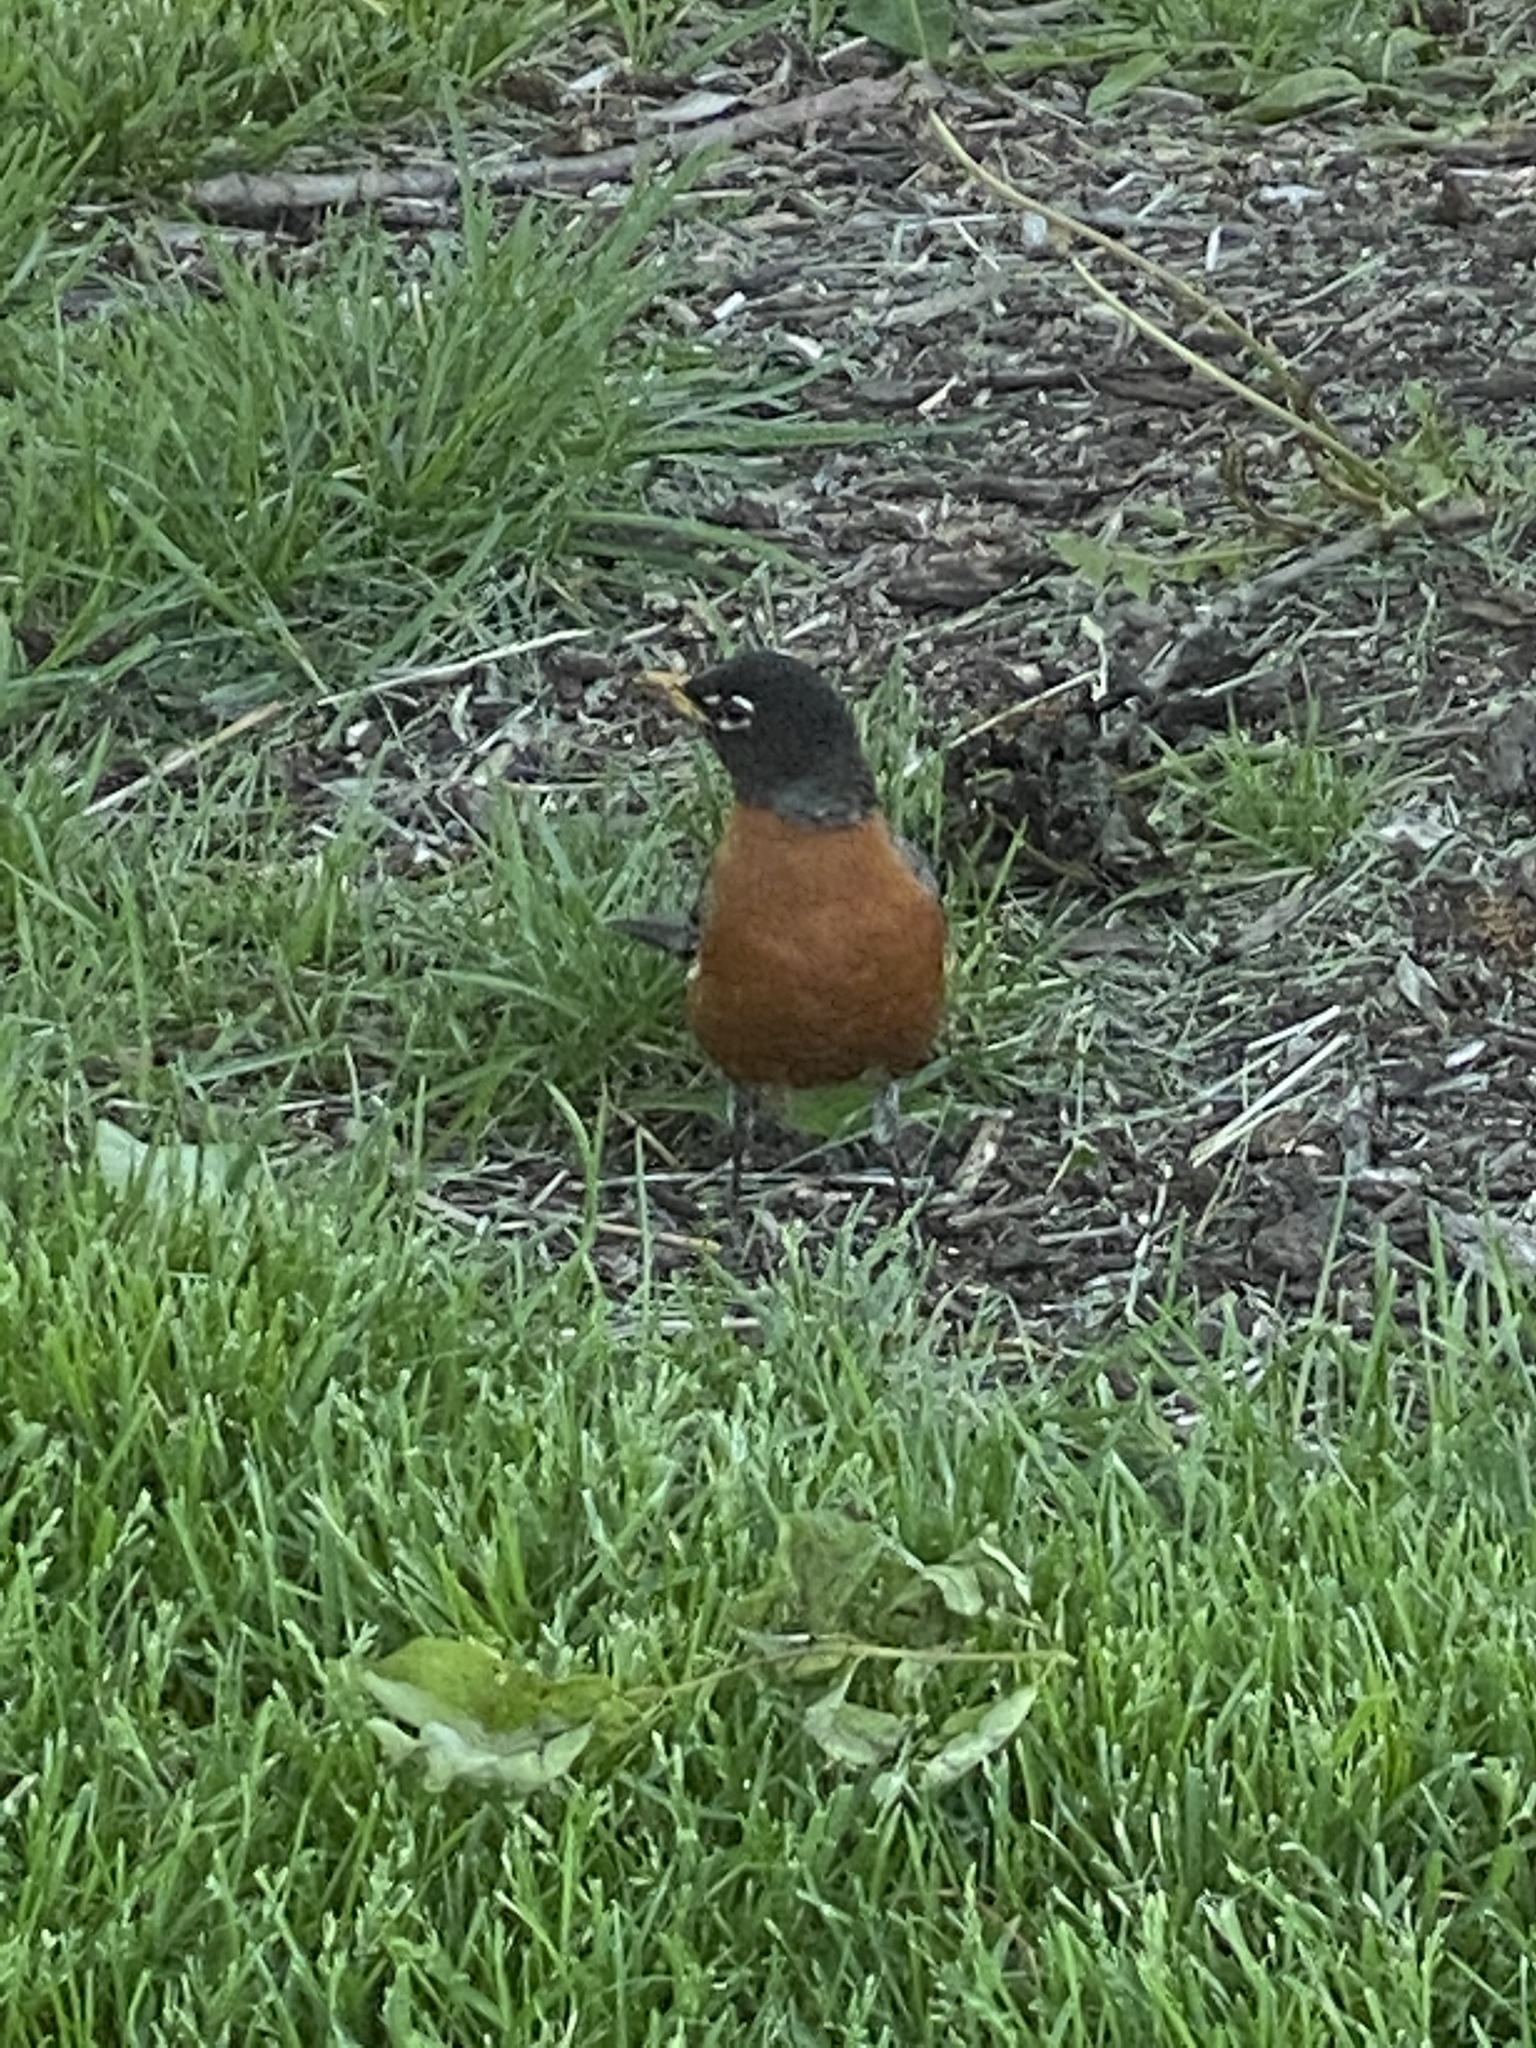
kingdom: Animalia
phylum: Chordata
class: Aves
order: Passeriformes
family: Turdidae
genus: Turdus
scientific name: Turdus migratorius
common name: American robin
